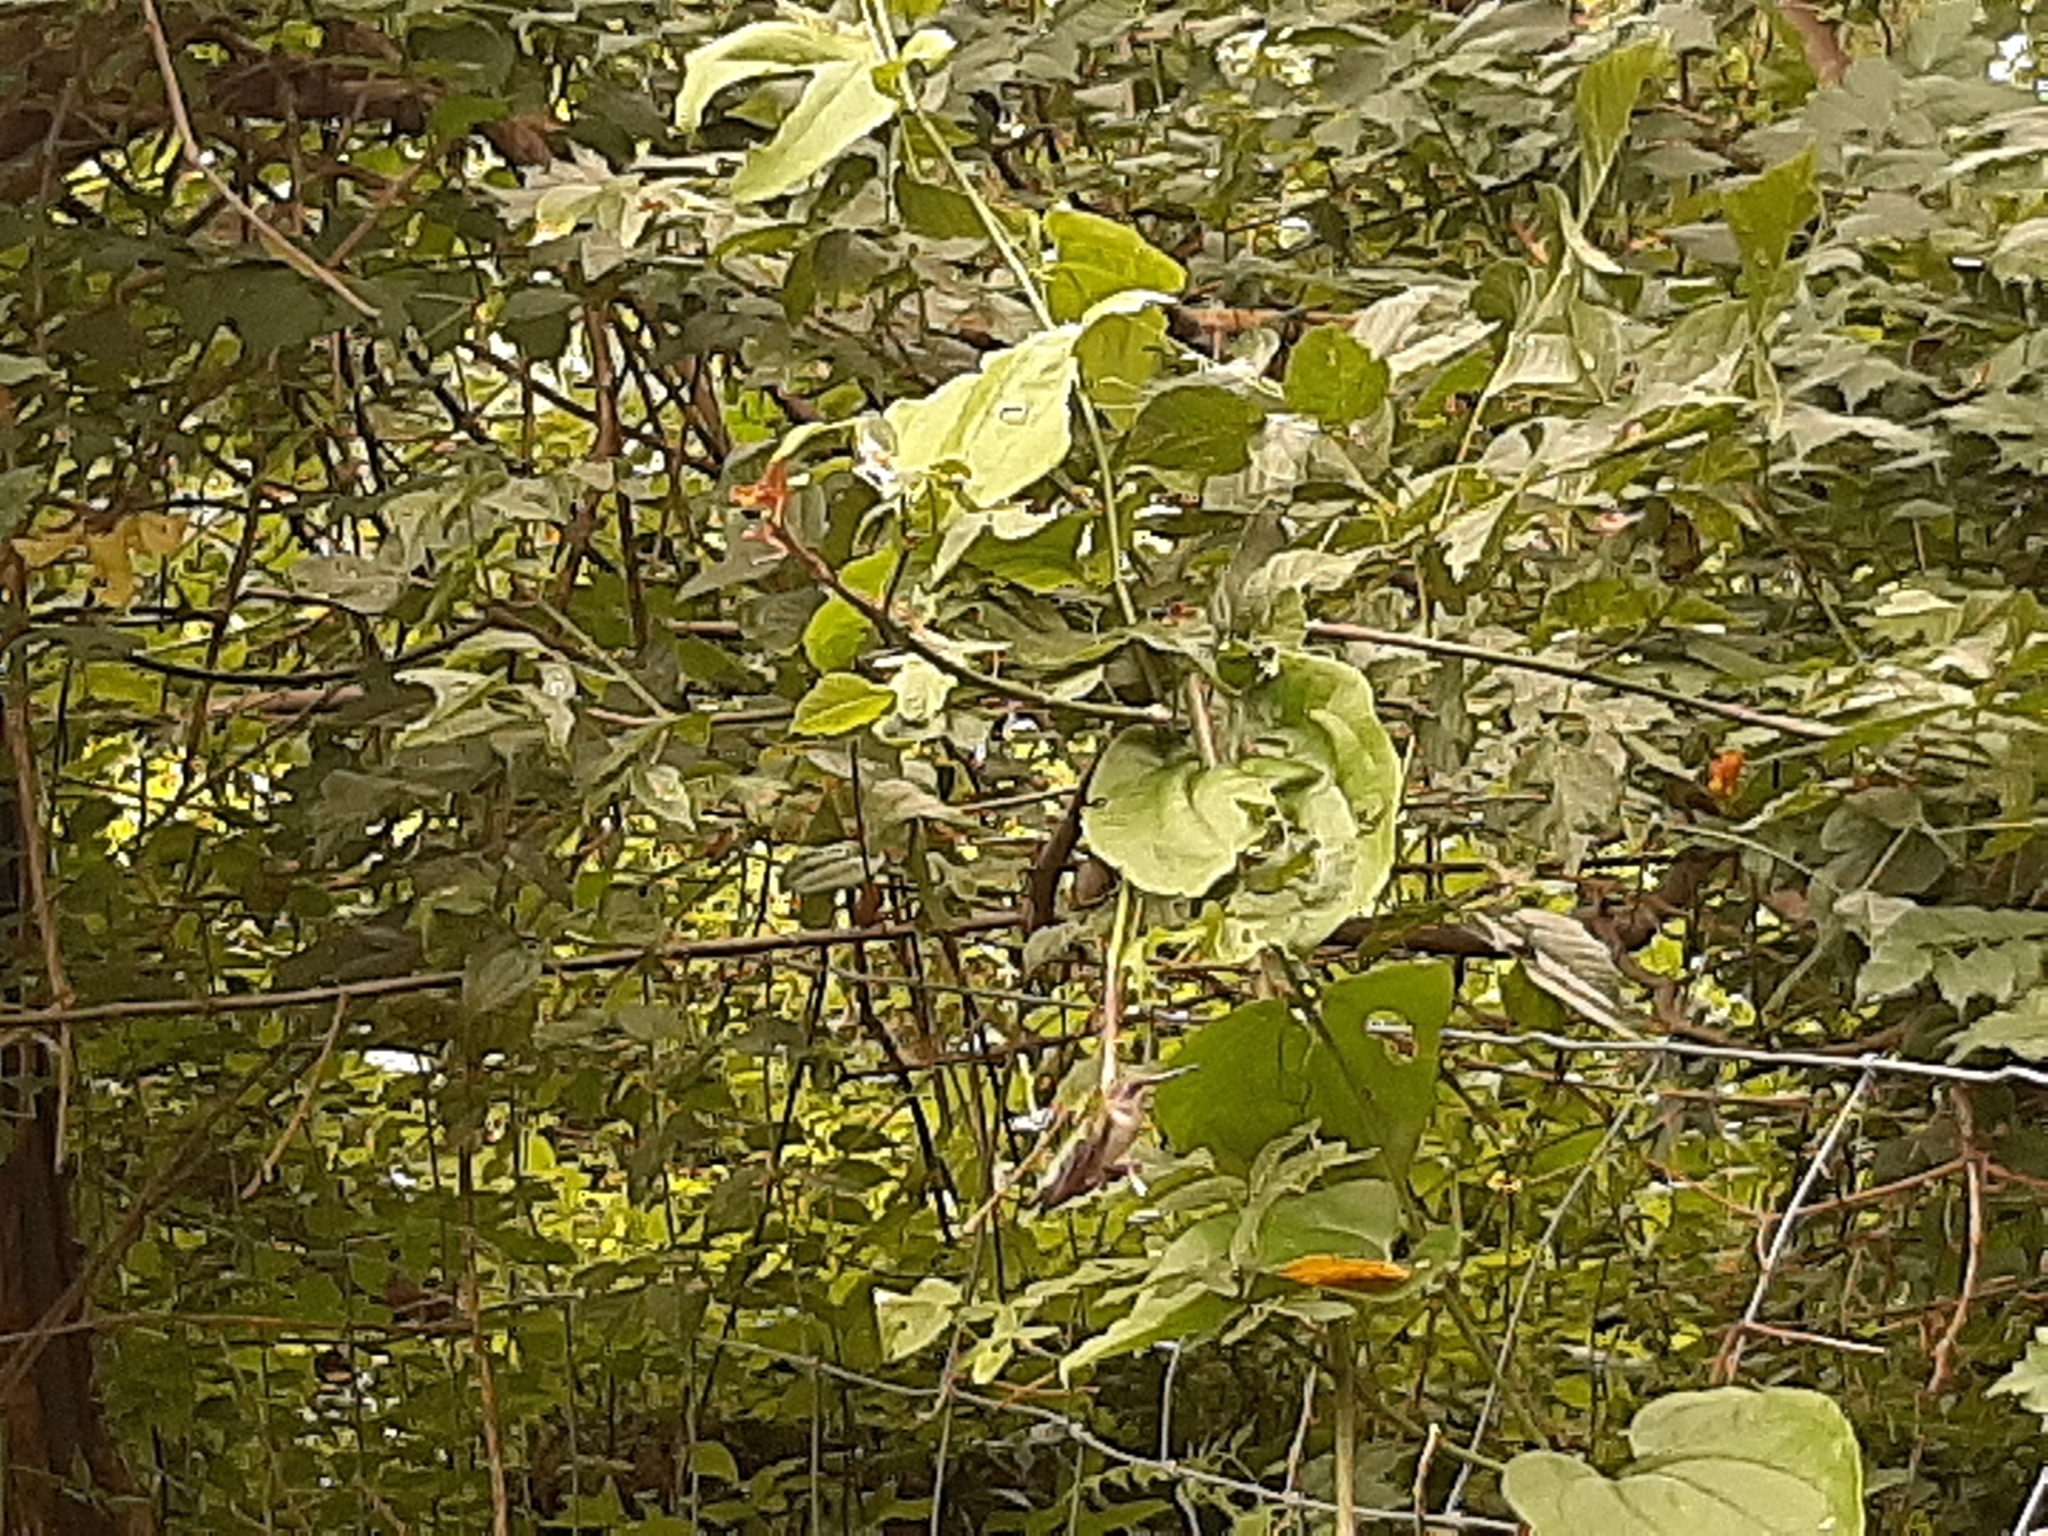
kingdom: Animalia
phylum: Chordata
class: Aves
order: Apodiformes
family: Trochilidae
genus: Archilochus
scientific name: Archilochus colubris
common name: Ruby-throated hummingbird
